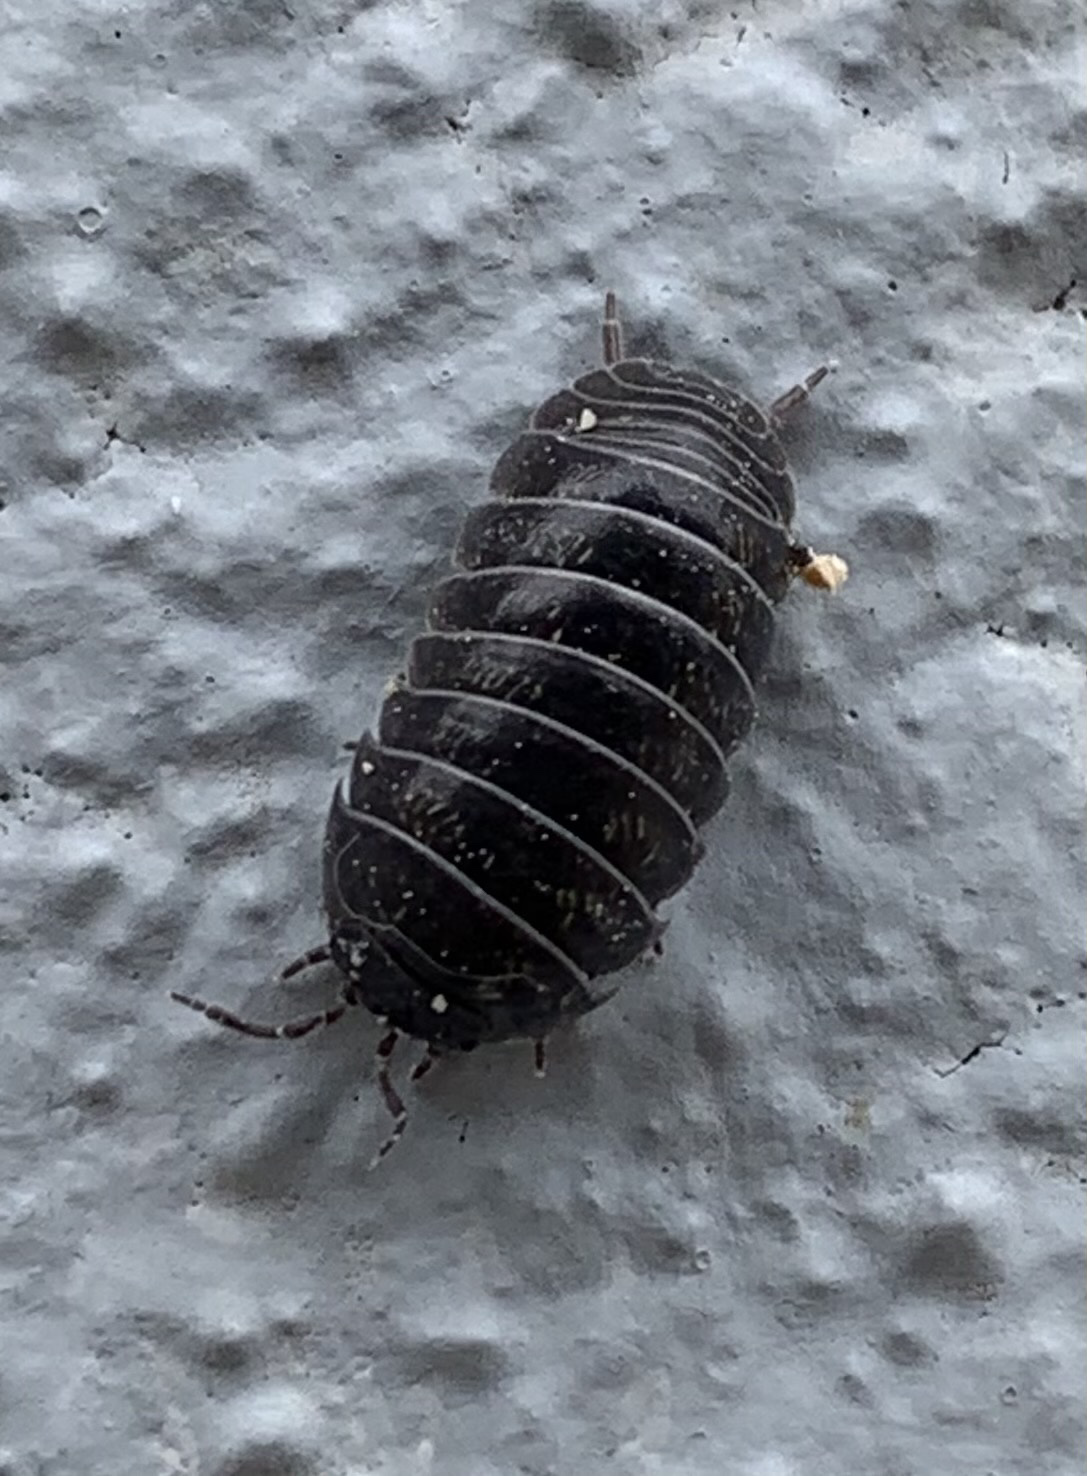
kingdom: Animalia
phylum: Arthropoda
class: Malacostraca
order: Isopoda
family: Armadillidiidae
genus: Armadillidium
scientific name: Armadillidium vulgare
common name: Common pill woodlouse
